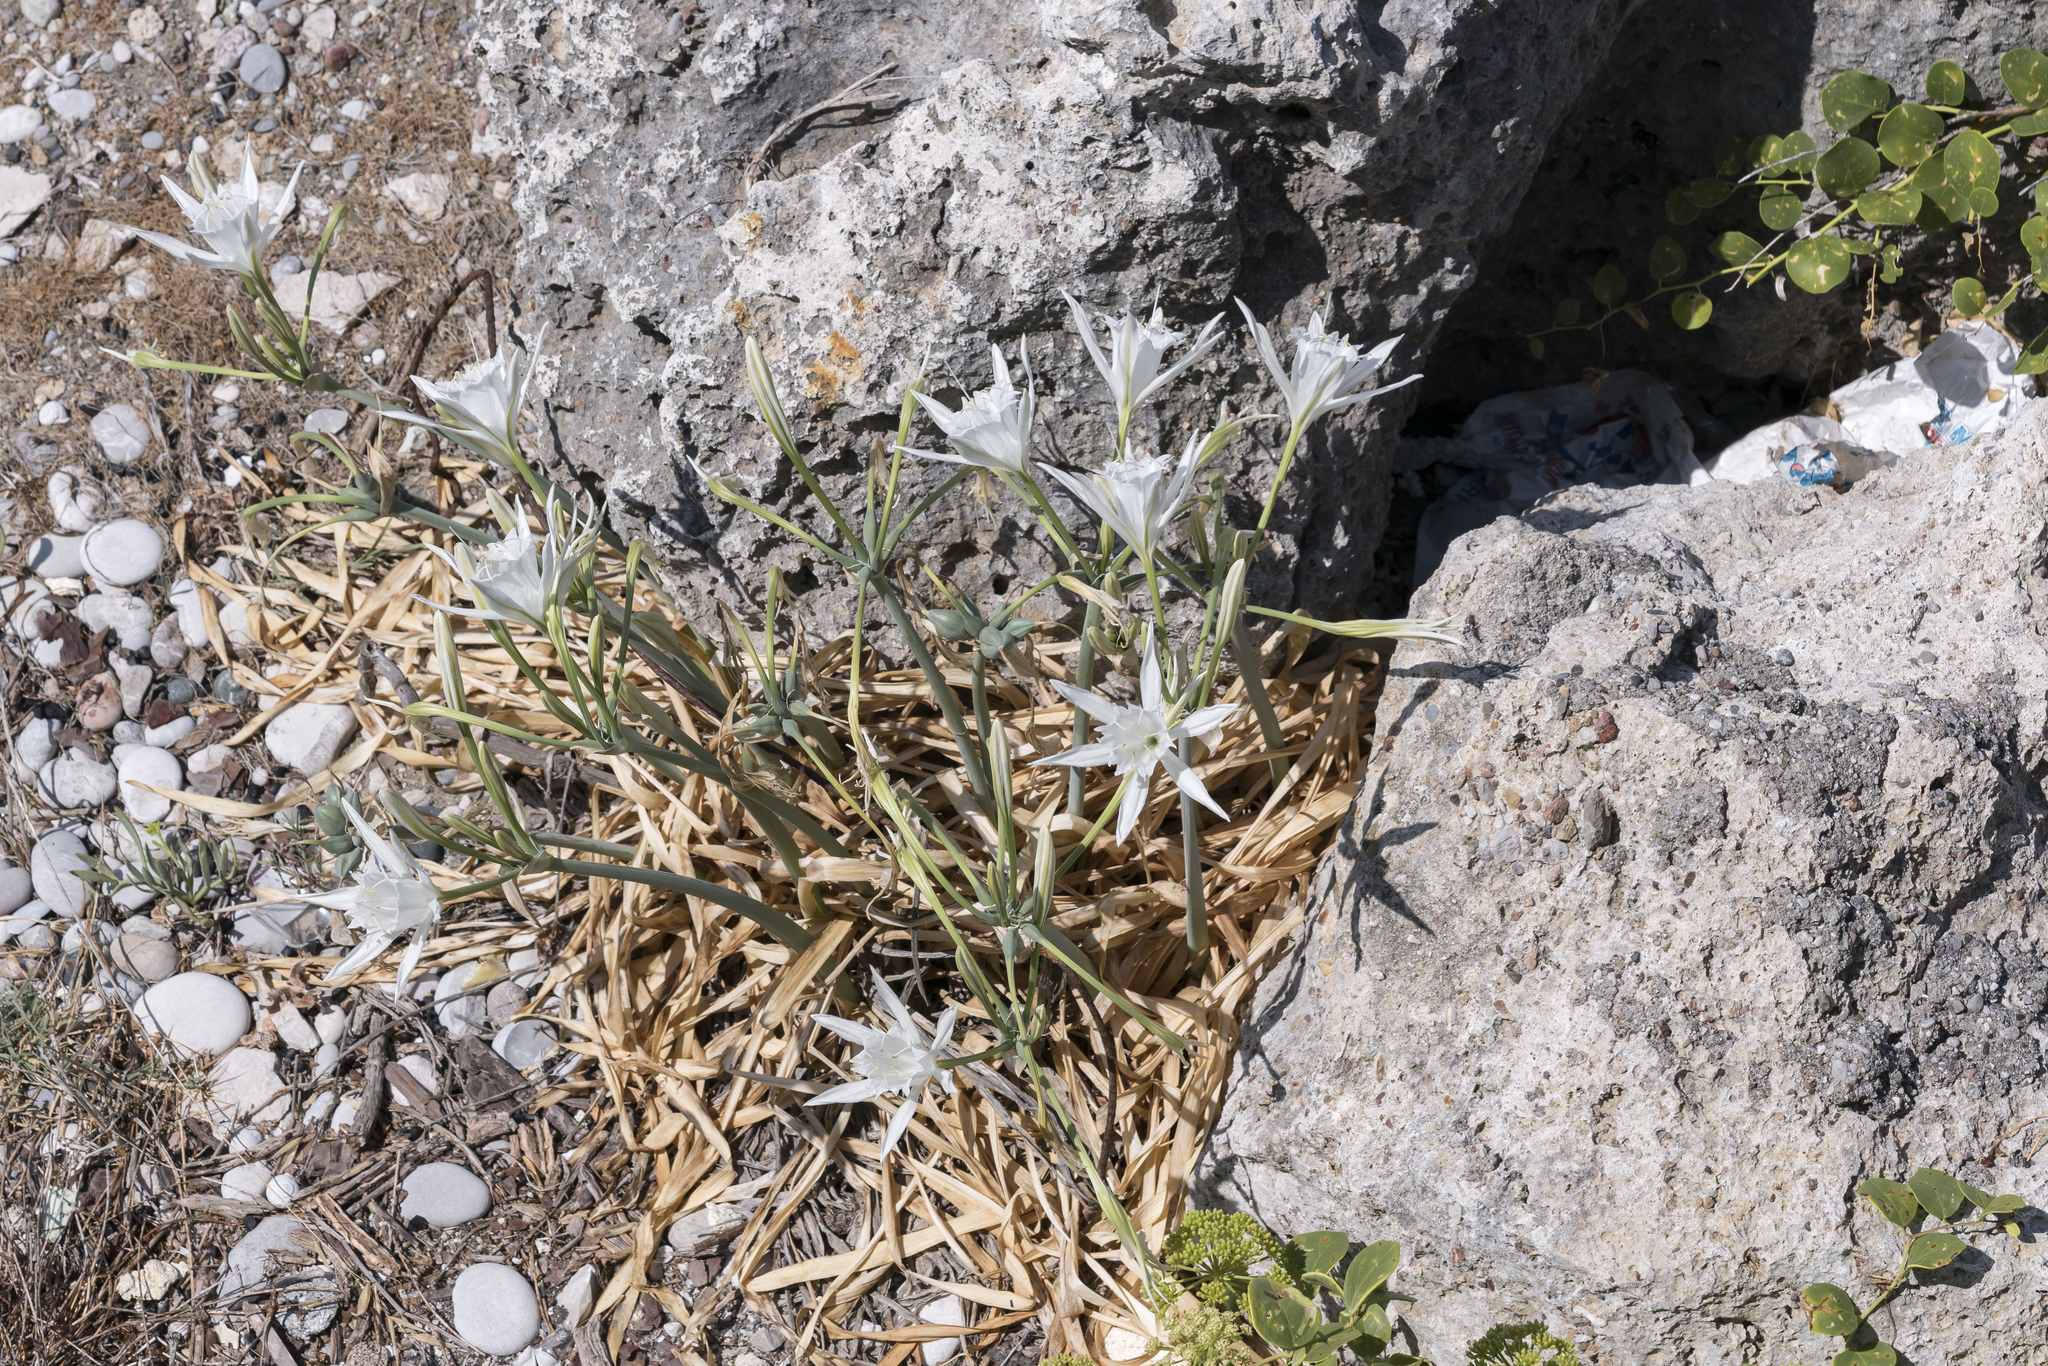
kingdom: Plantae
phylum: Tracheophyta
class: Liliopsida
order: Asparagales
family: Amaryllidaceae
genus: Pancratium
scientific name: Pancratium maritimum
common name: Sea-daffodil
